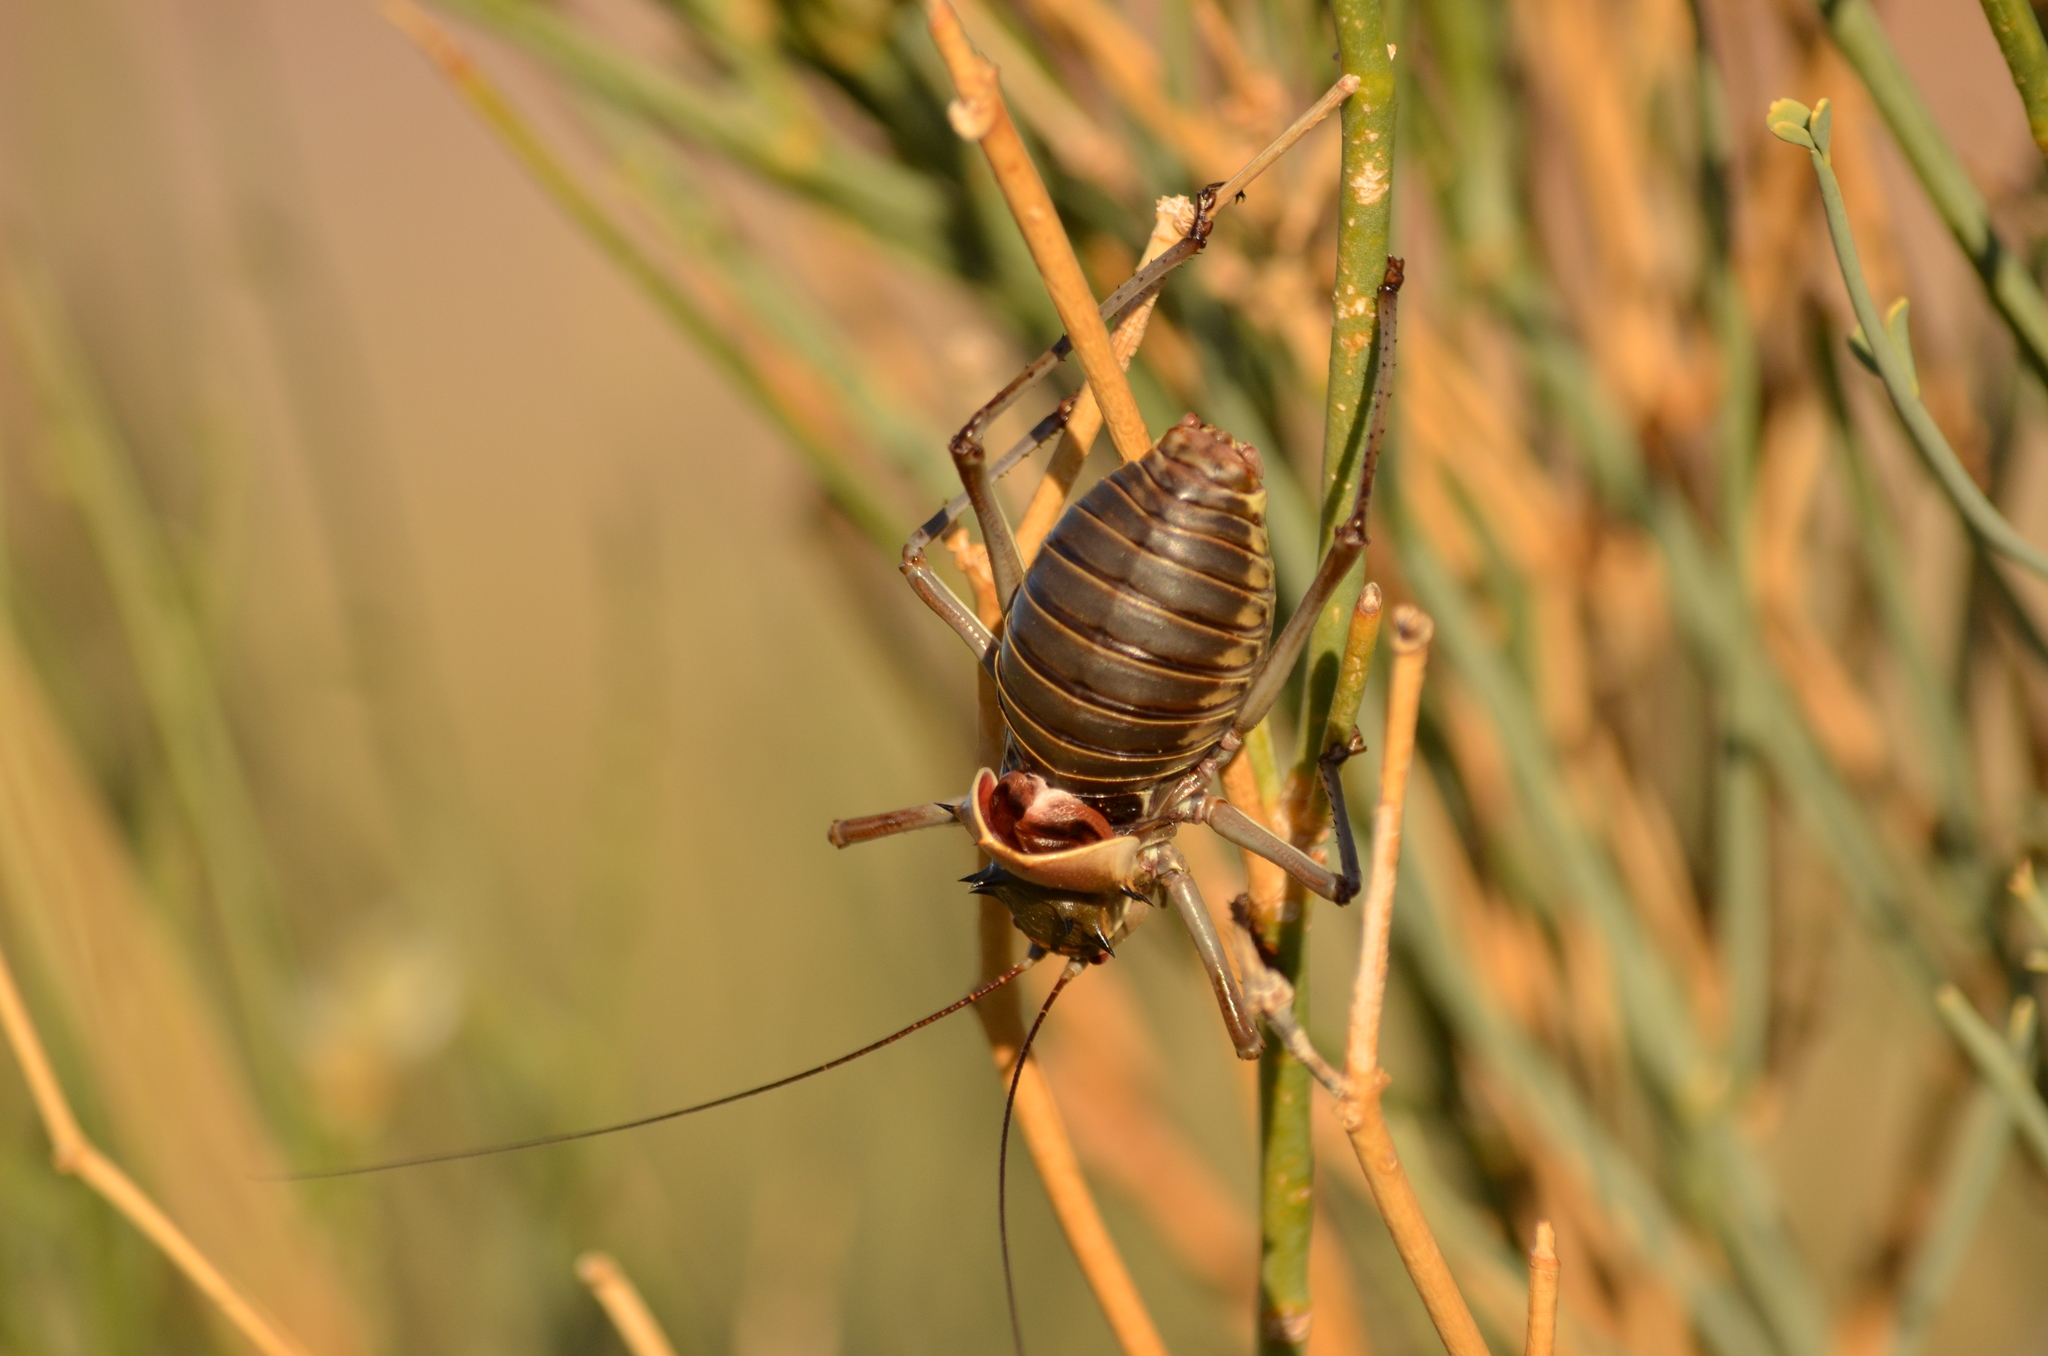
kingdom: Animalia
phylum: Arthropoda
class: Insecta
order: Orthoptera
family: Tettigoniidae
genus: Acanthoplus
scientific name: Acanthoplus discoidalis
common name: Armoured katydid
